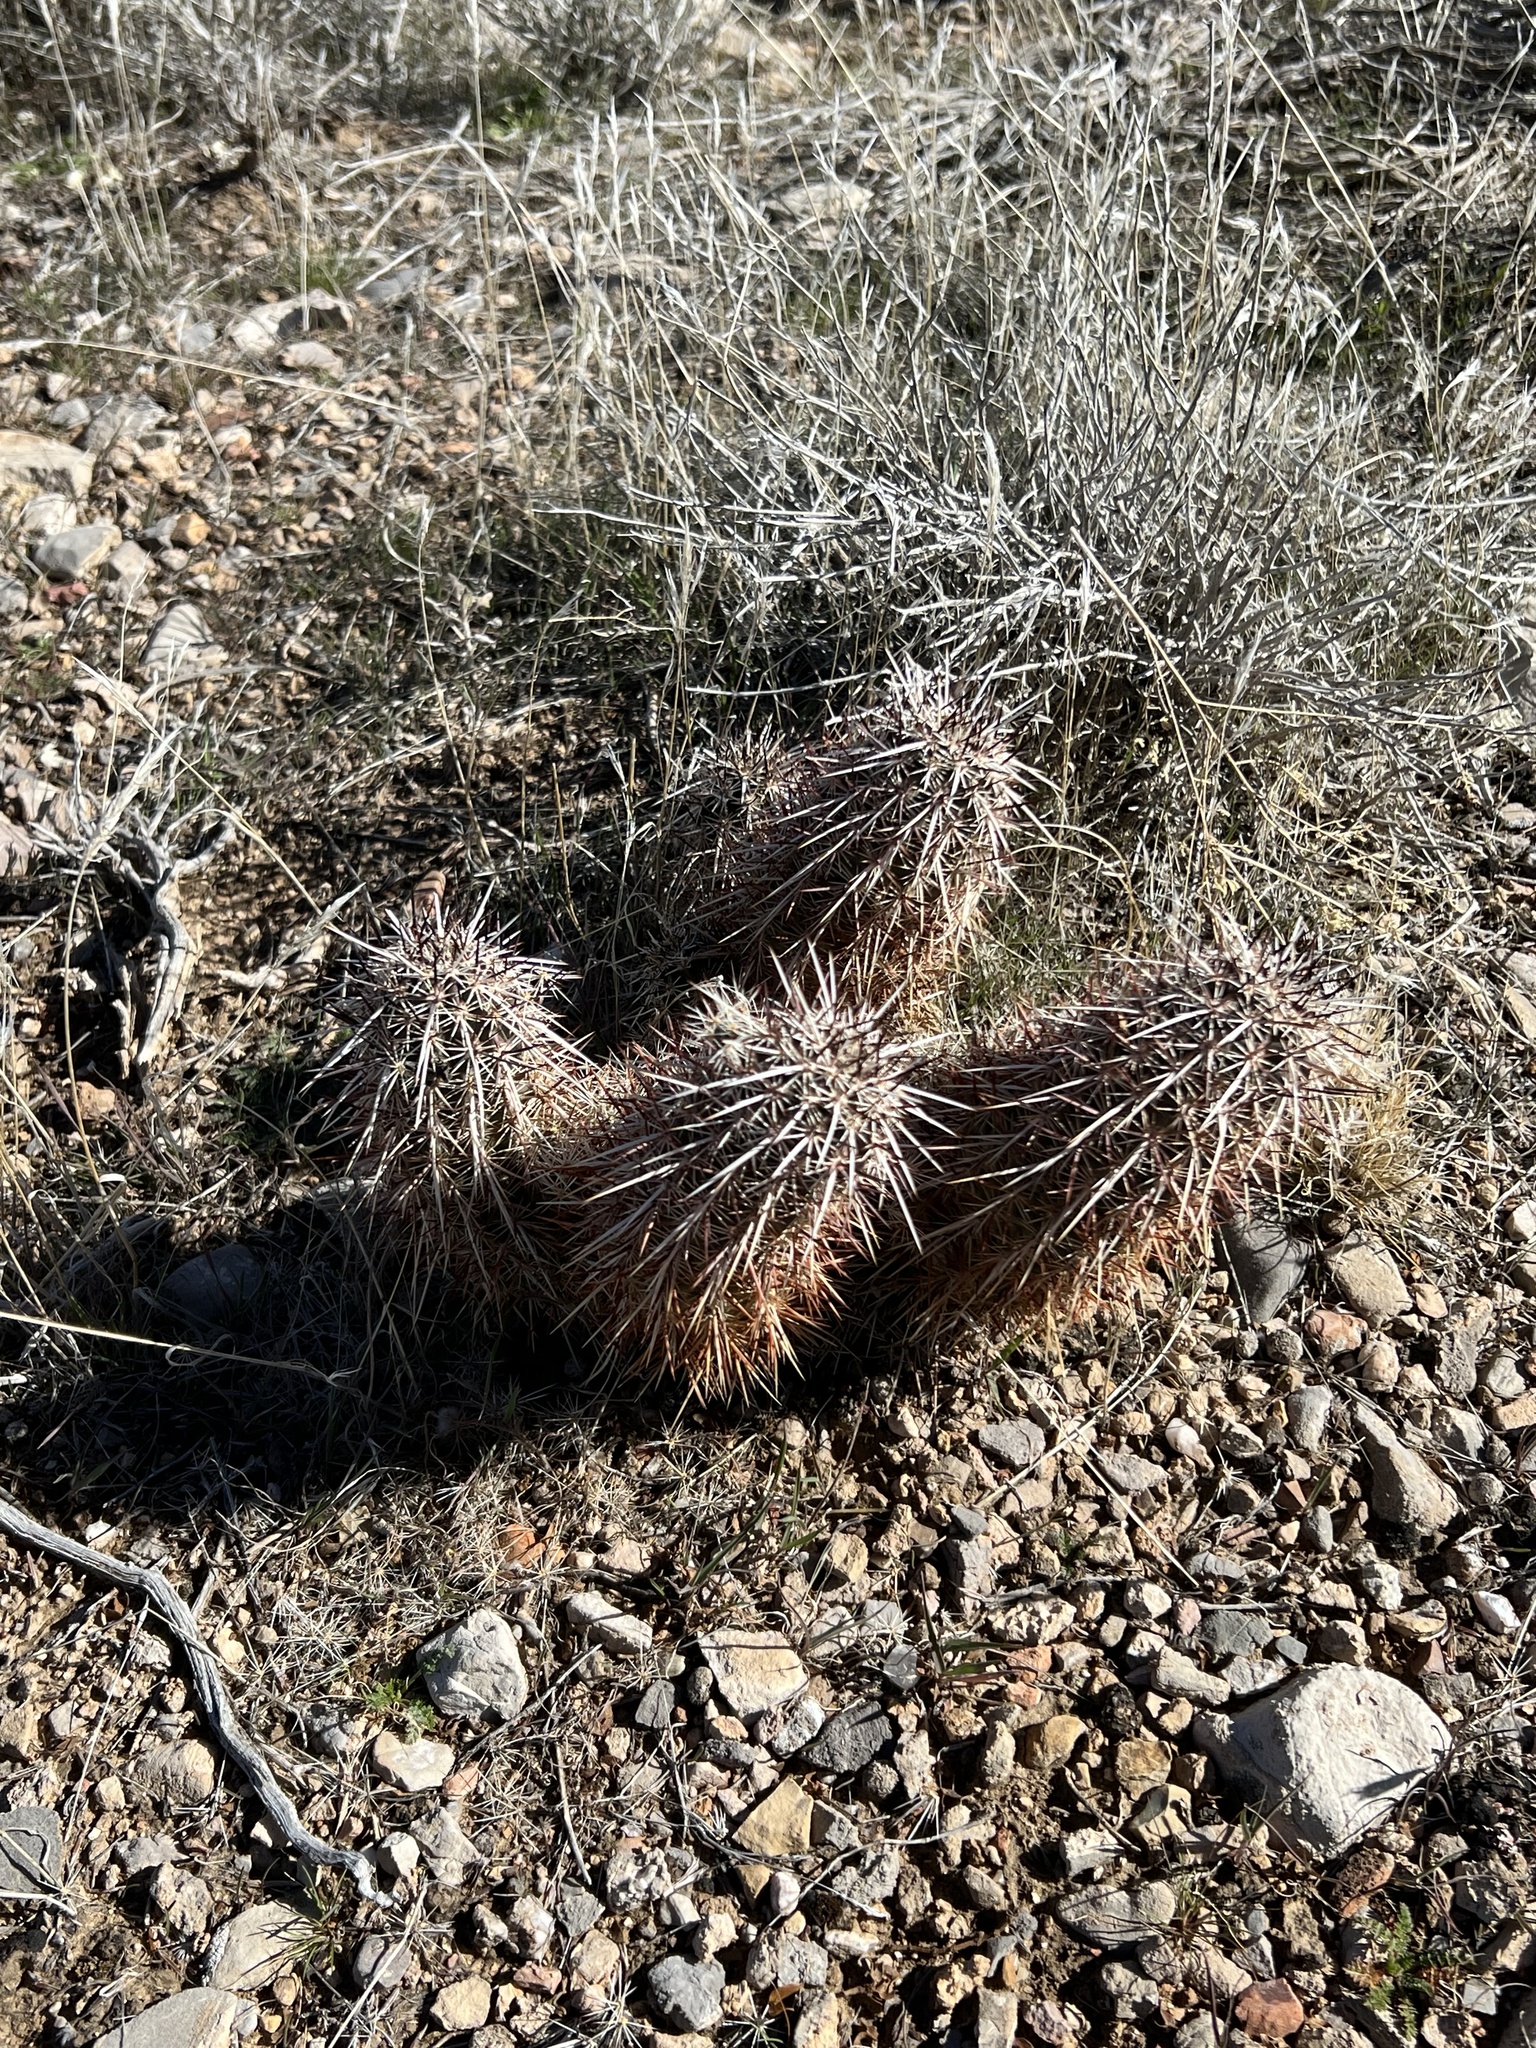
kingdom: Plantae
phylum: Tracheophyta
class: Magnoliopsida
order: Caryophyllales
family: Cactaceae
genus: Echinocereus
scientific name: Echinocereus engelmannii
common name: Engelmann's hedgehog cactus
